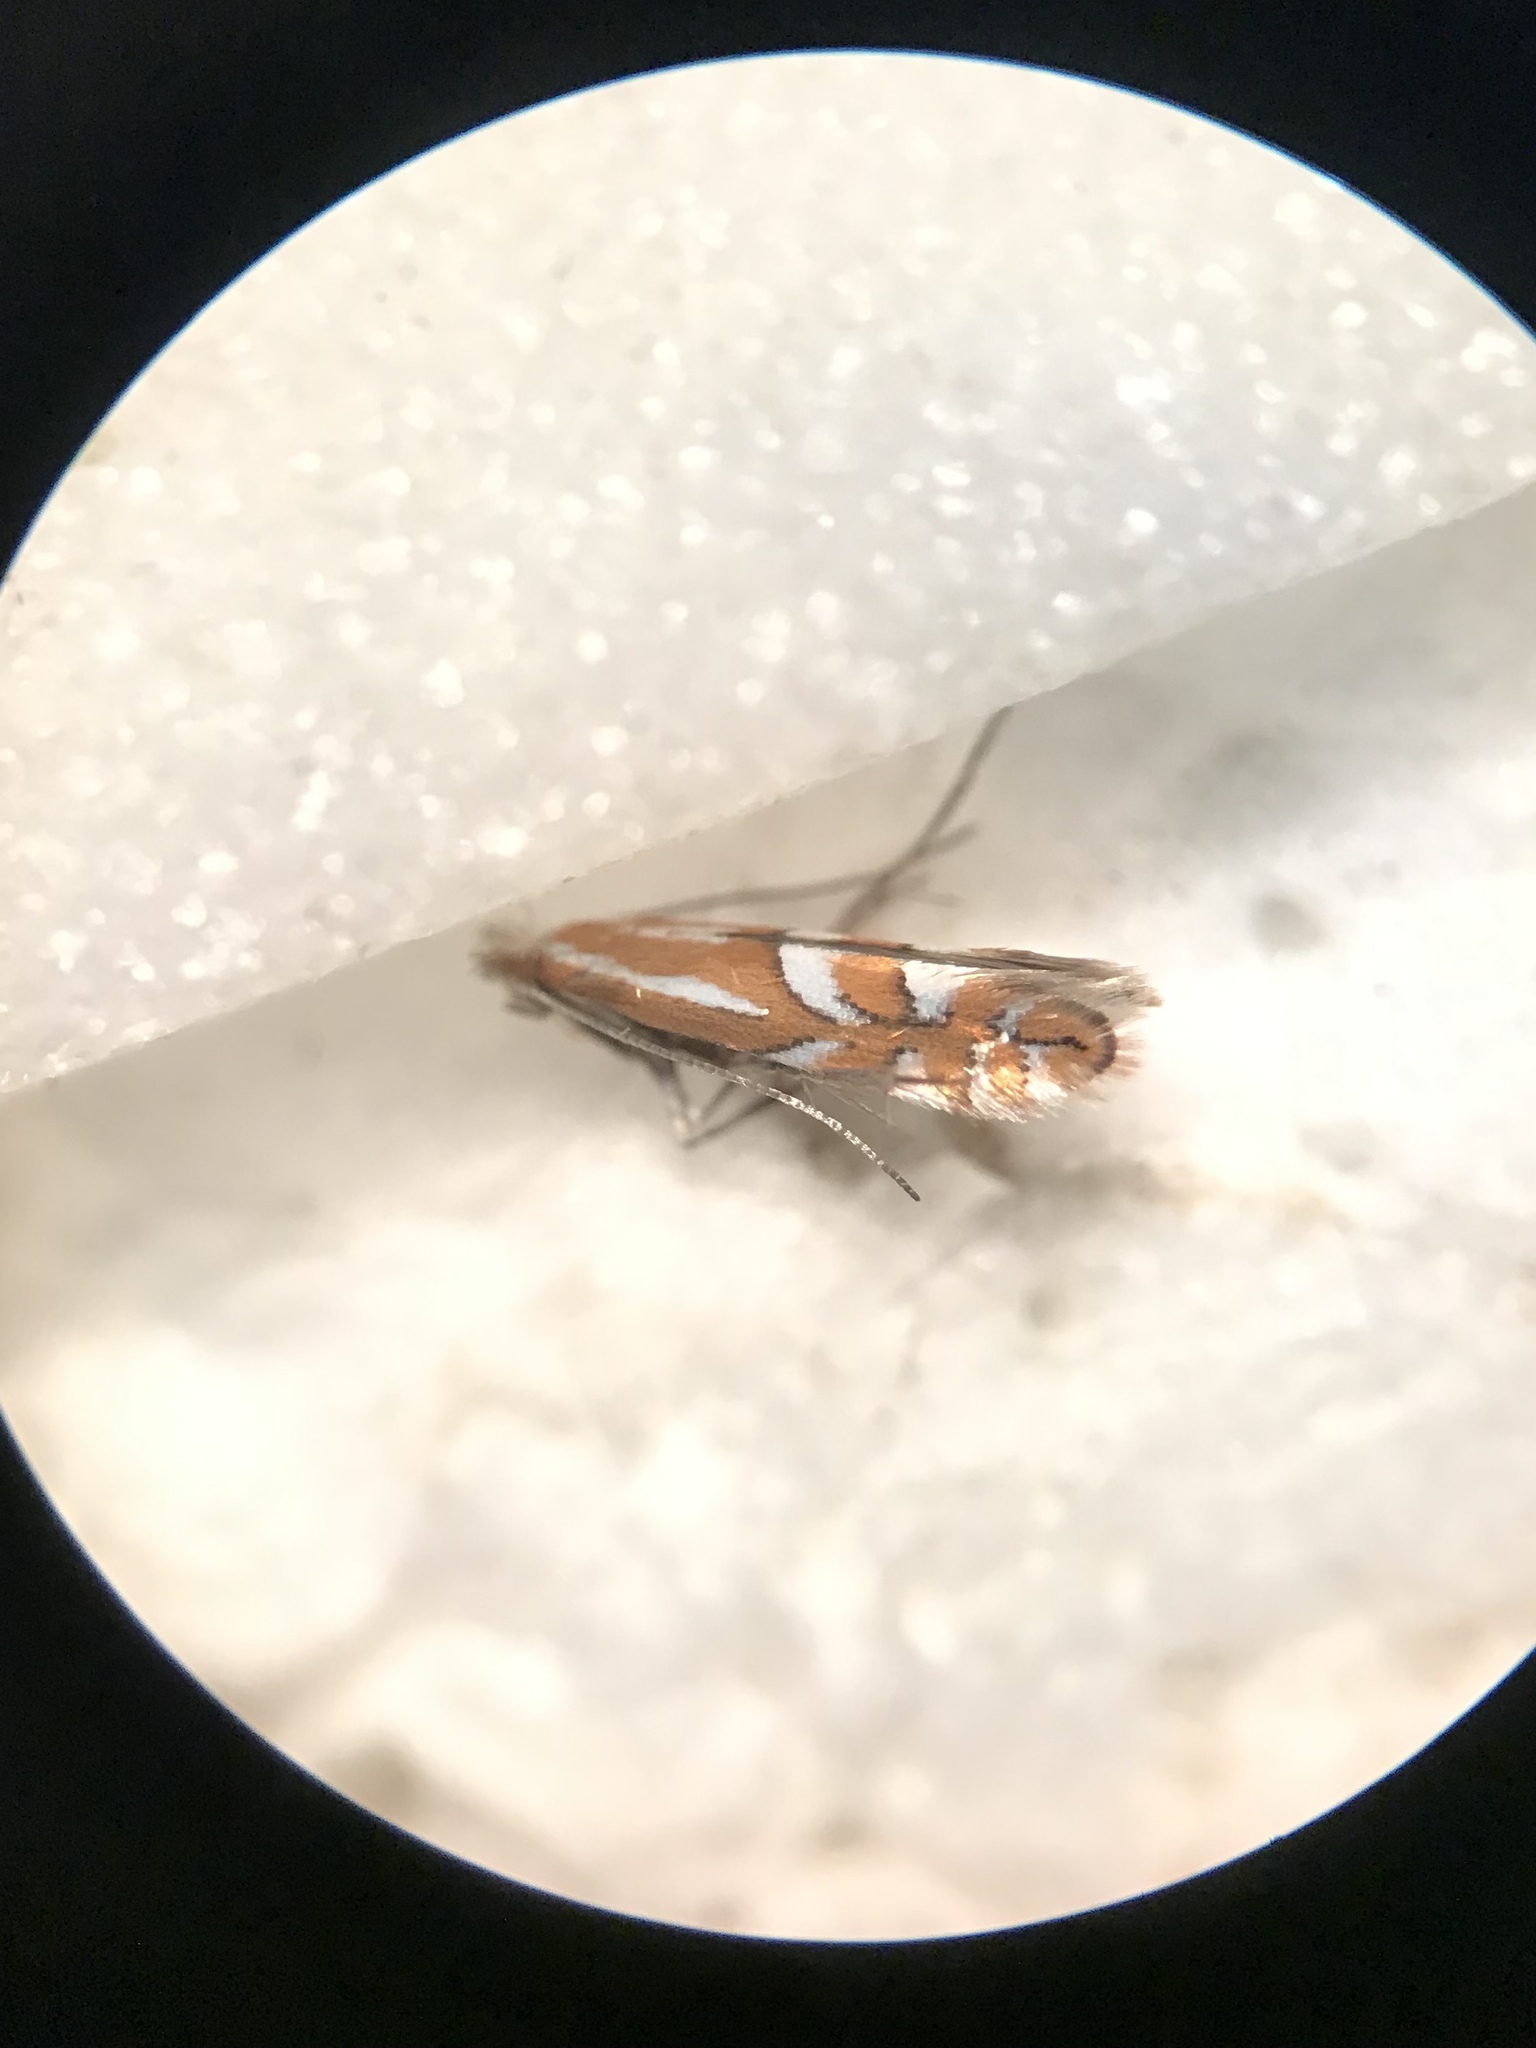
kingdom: Animalia
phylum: Arthropoda
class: Insecta
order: Lepidoptera
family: Gracillariidae
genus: Phyllonorycter
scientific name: Phyllonorycter crataegella
